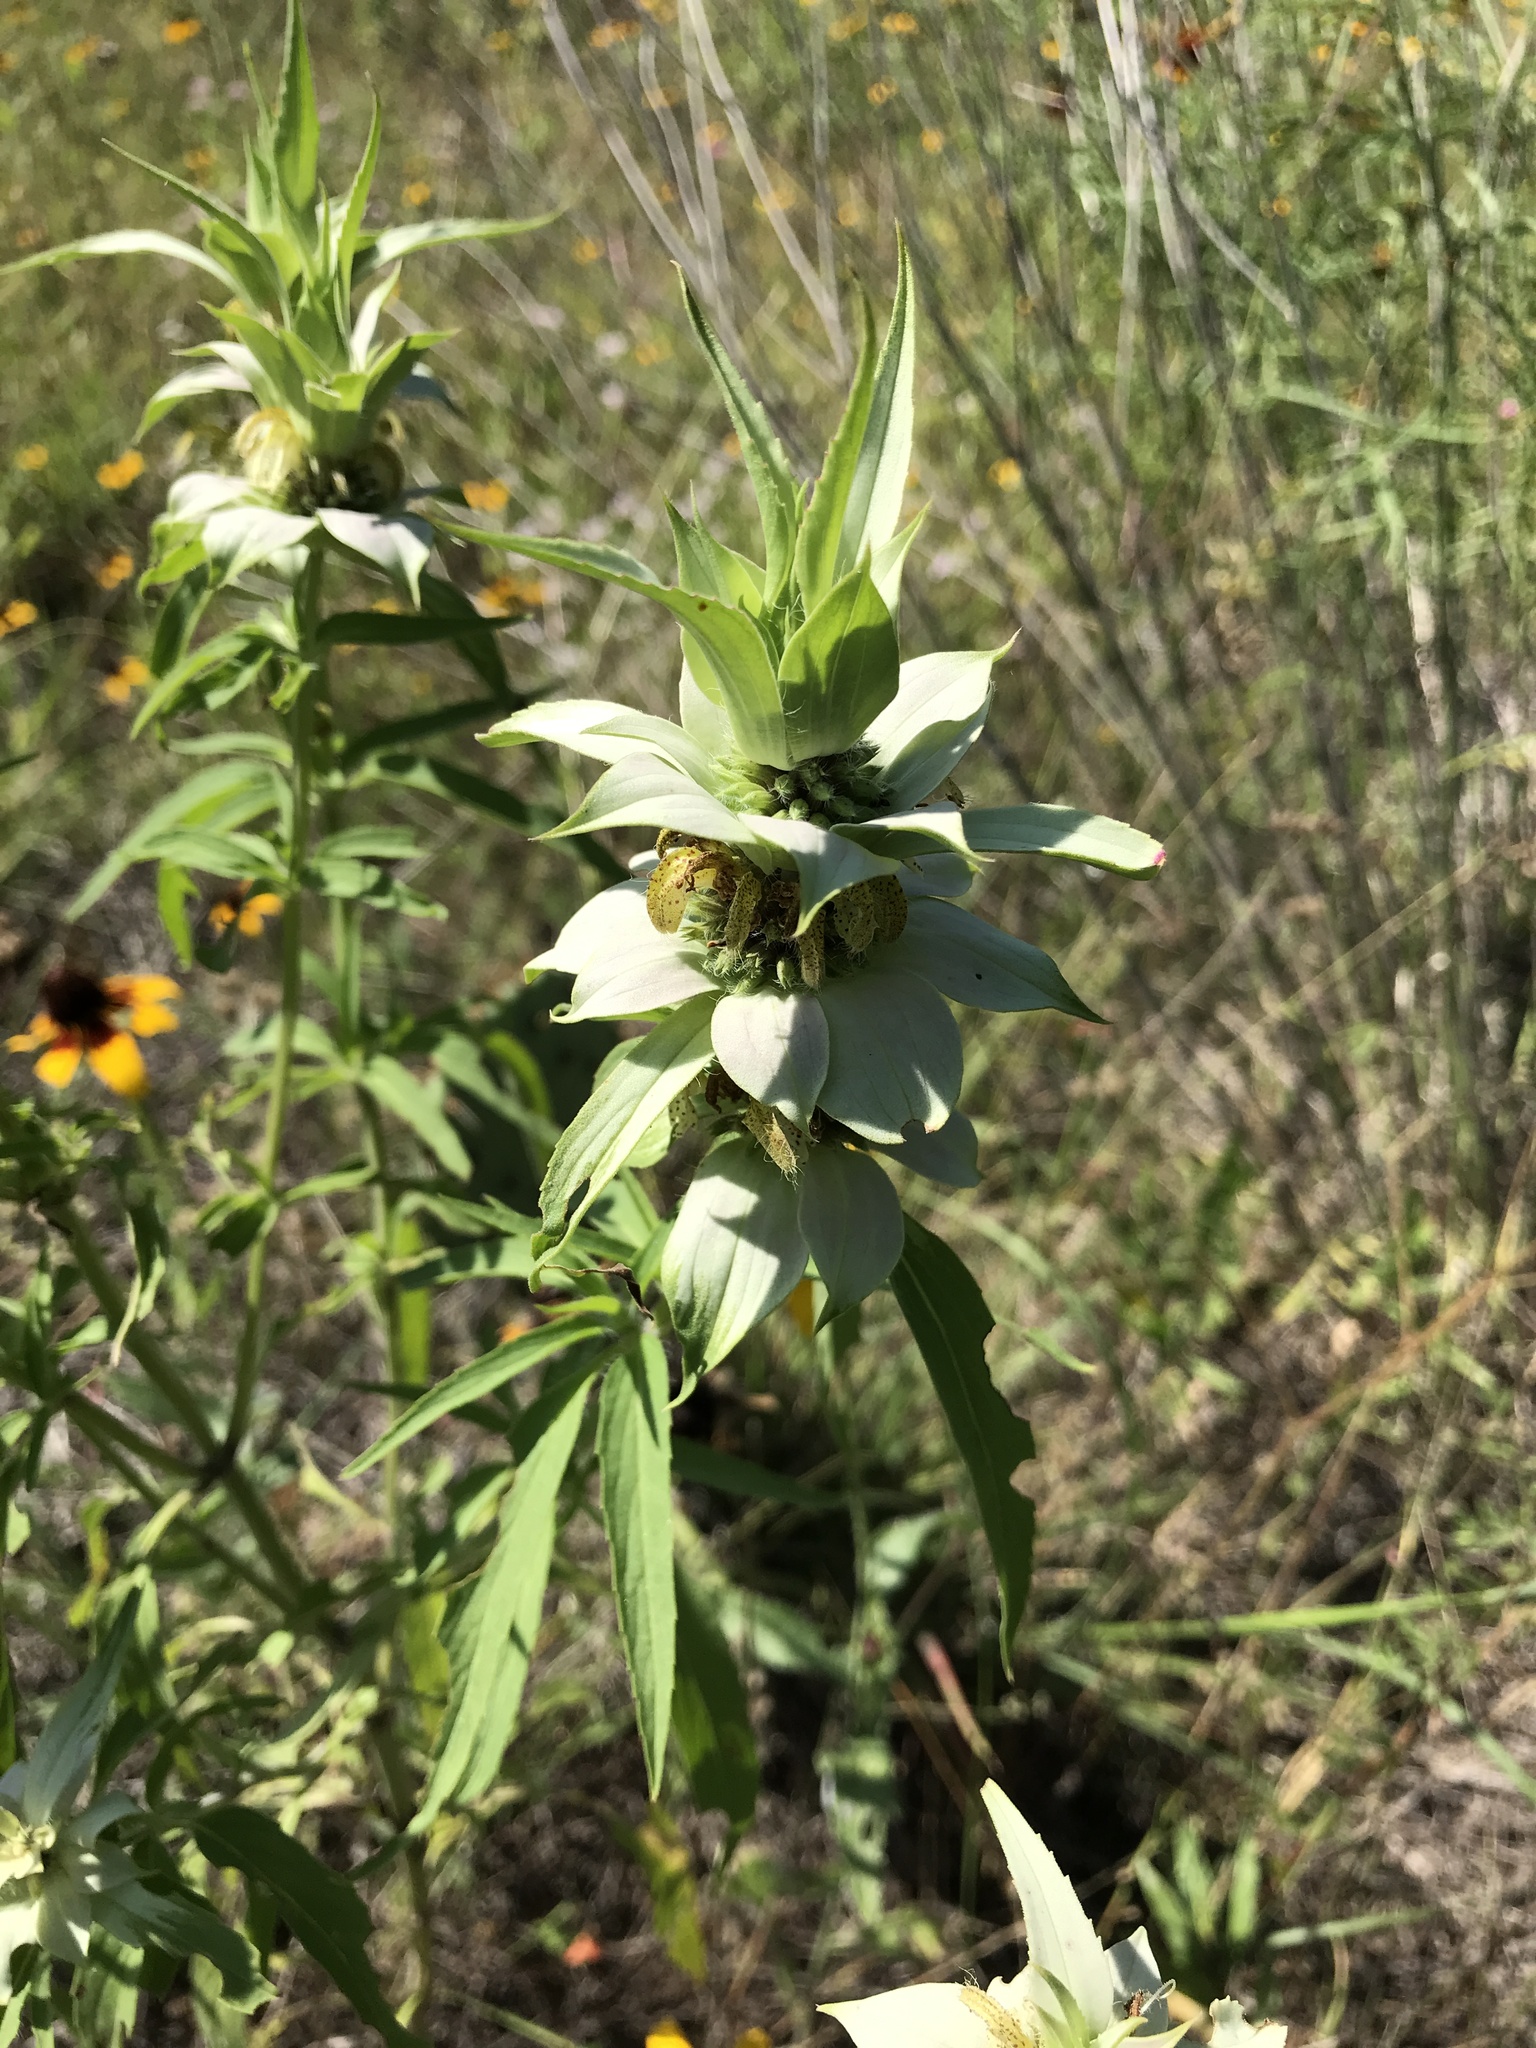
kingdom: Plantae
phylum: Tracheophyta
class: Magnoliopsida
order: Lamiales
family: Lamiaceae
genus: Monarda
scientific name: Monarda punctata
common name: Dotted monarda
